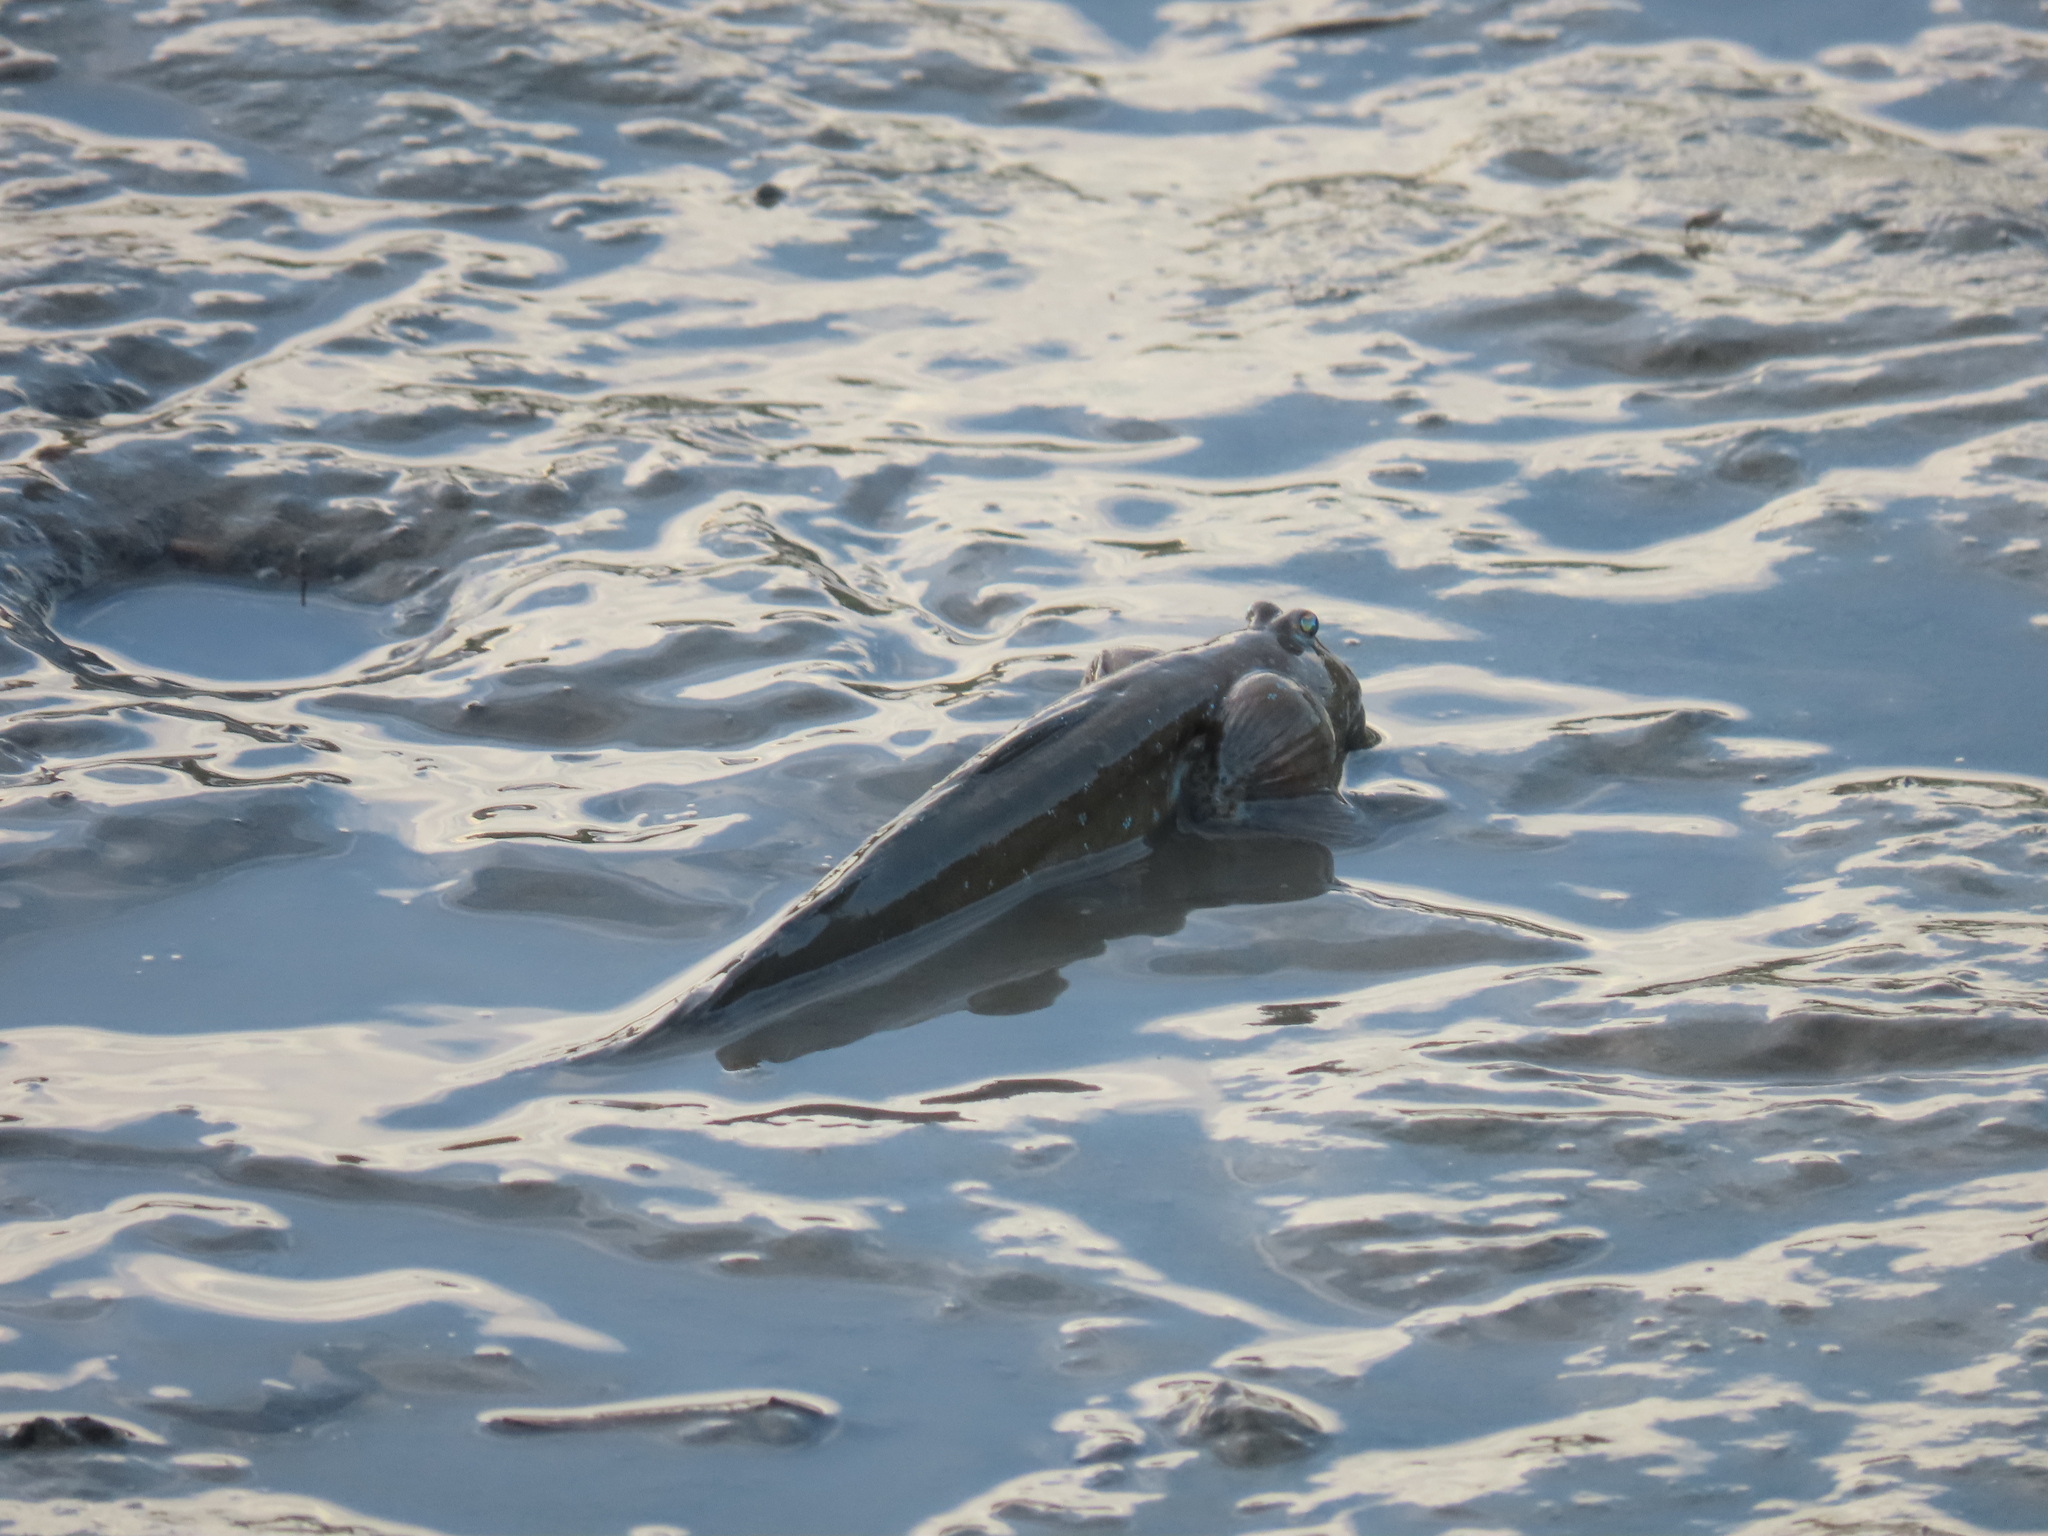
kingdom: Animalia
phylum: Chordata
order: Perciformes
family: Gobiidae
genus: Boleophthalmus
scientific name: Boleophthalmus pectinirostris
